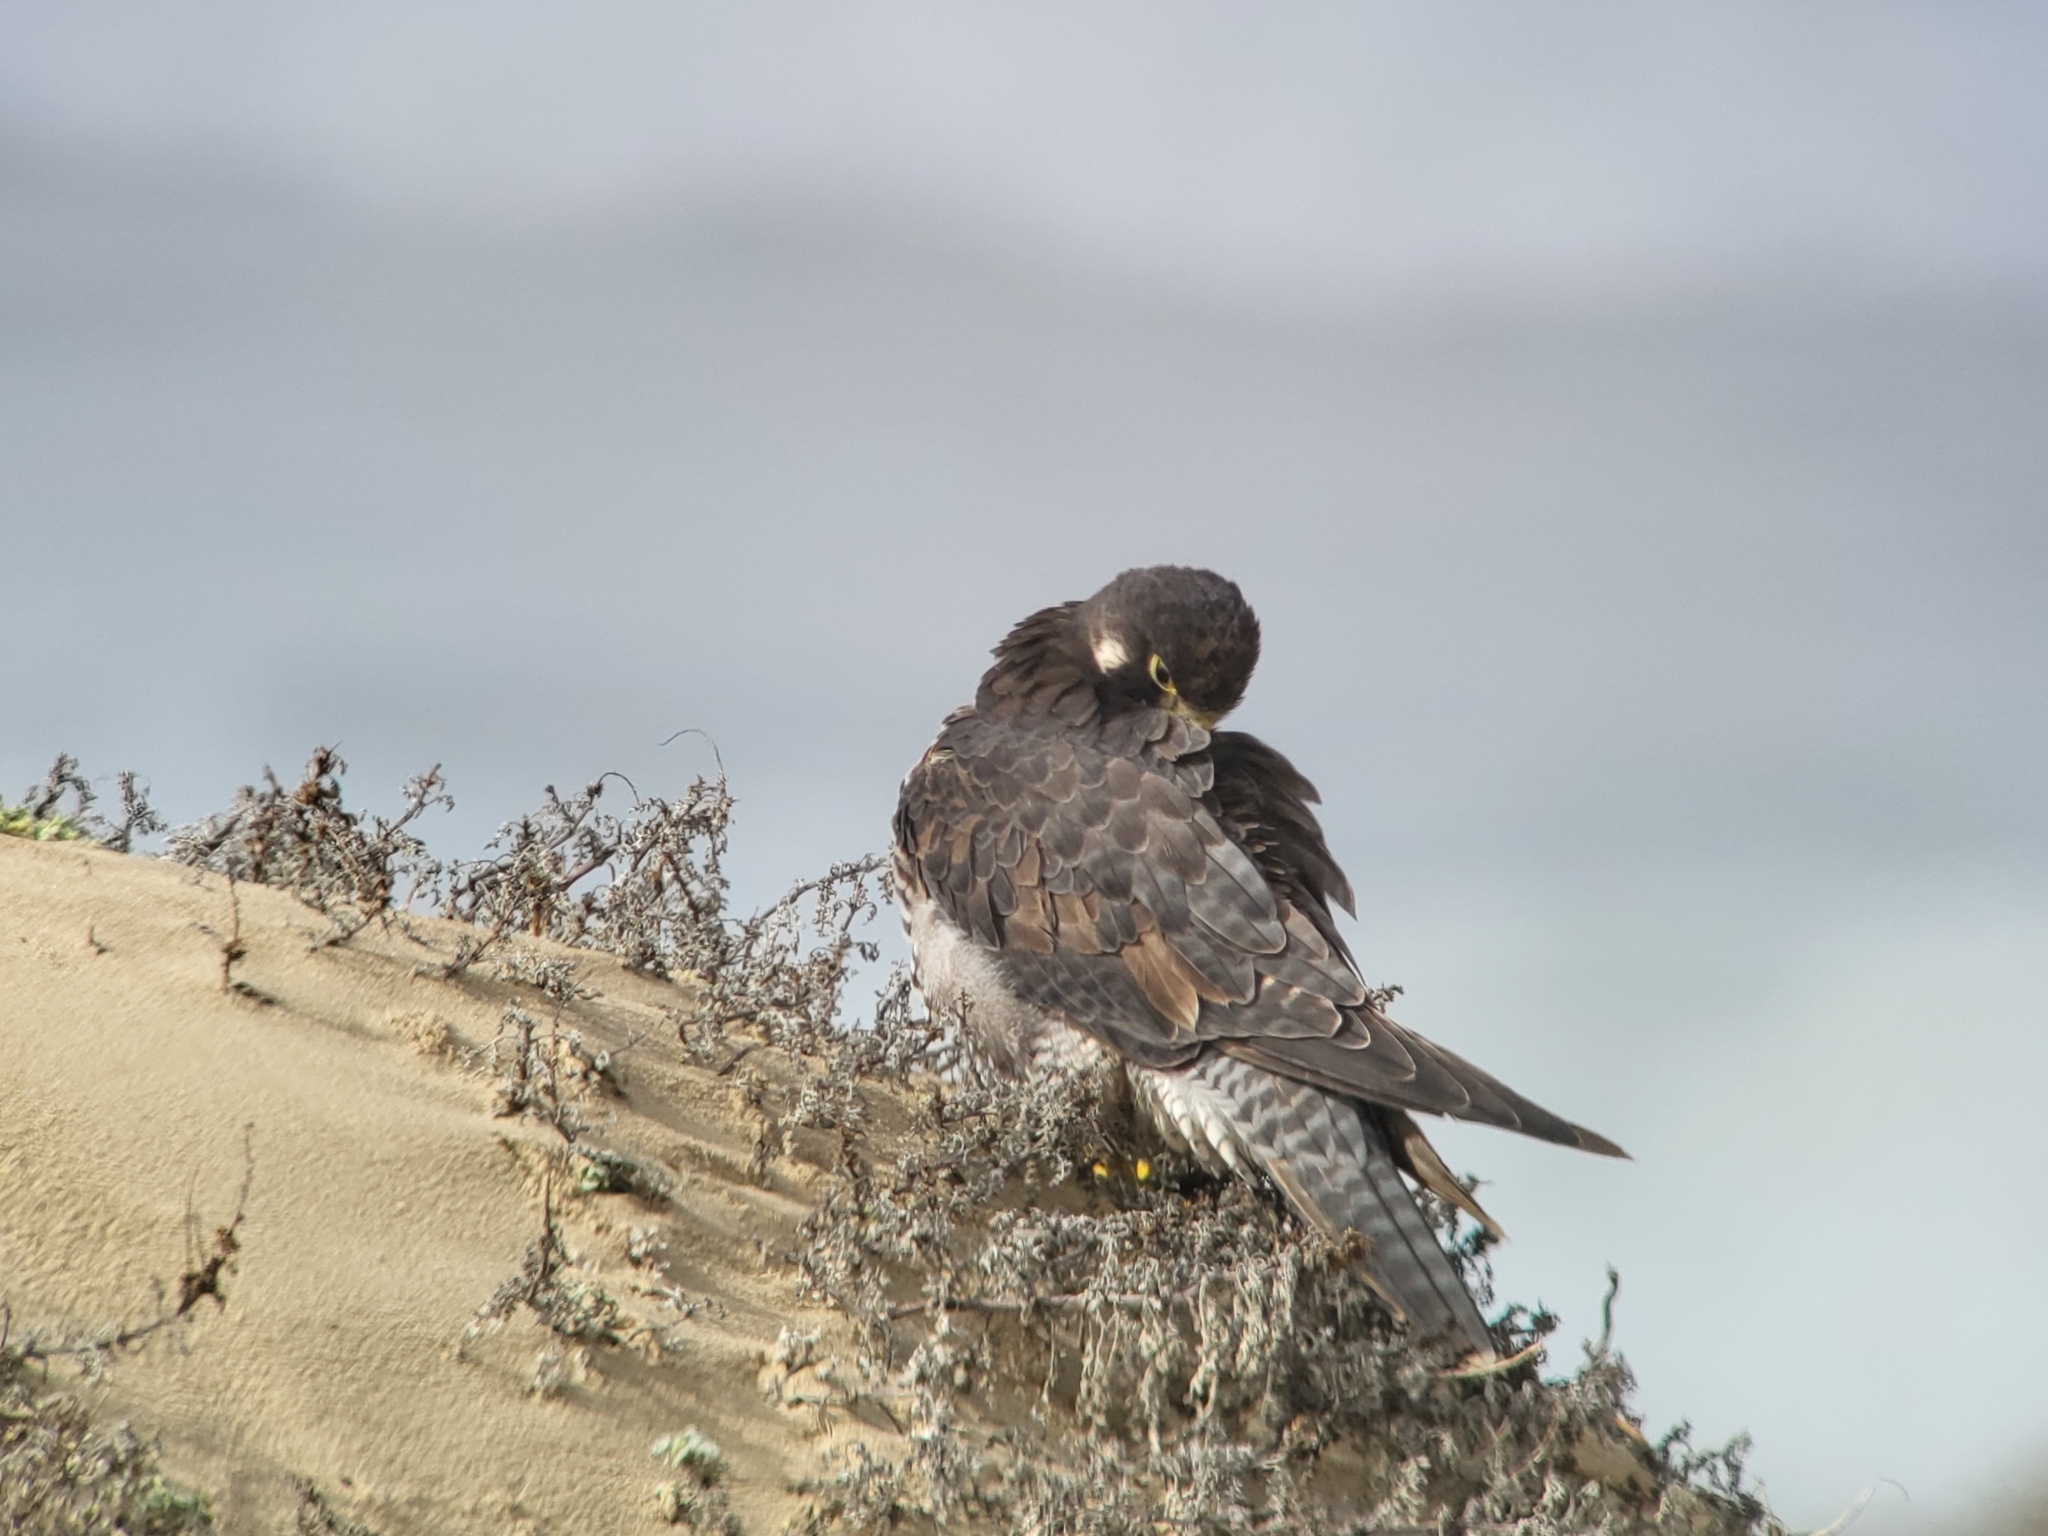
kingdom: Animalia
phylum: Chordata
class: Aves
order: Falconiformes
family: Falconidae
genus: Falco
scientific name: Falco peregrinus
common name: Peregrine falcon
